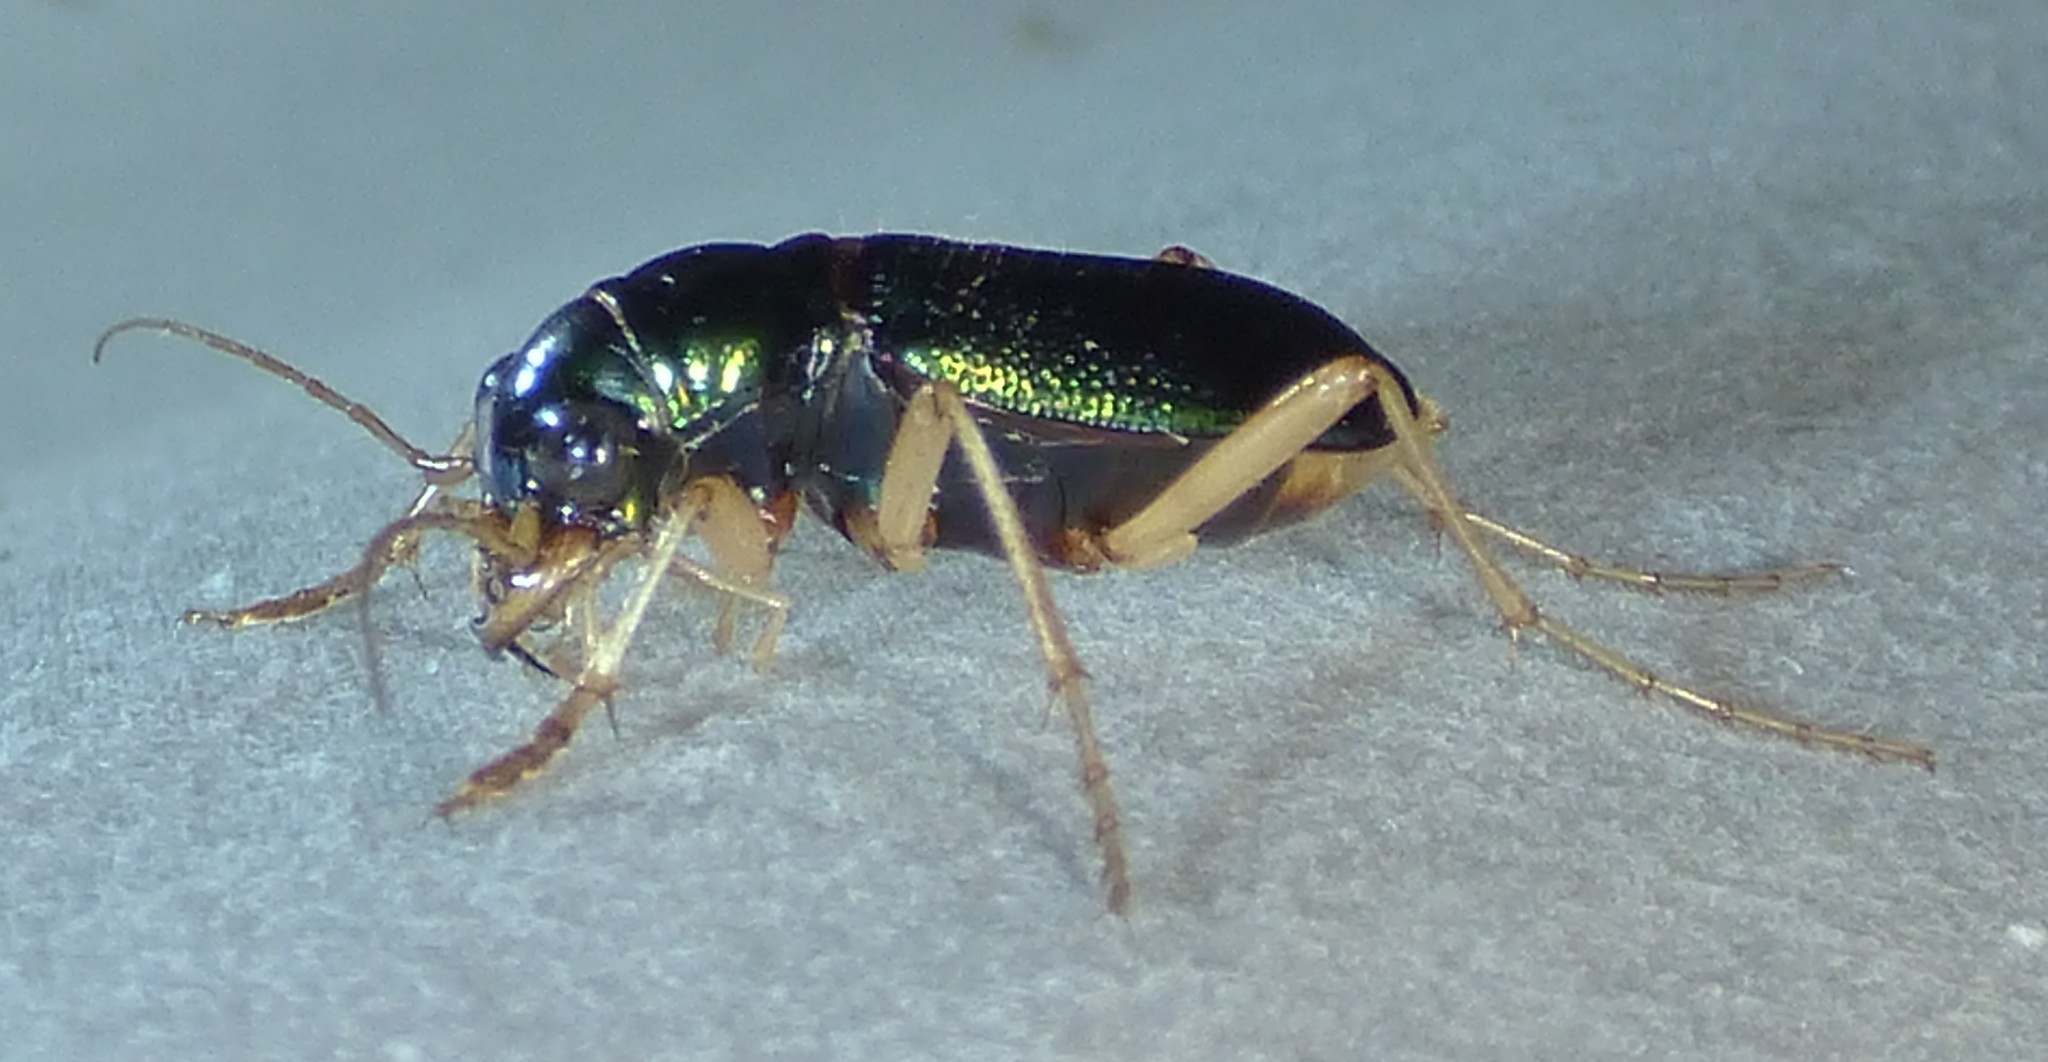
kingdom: Animalia
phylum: Arthropoda
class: Insecta
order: Coleoptera
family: Carabidae
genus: Tetracha
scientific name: Tetracha virginica
